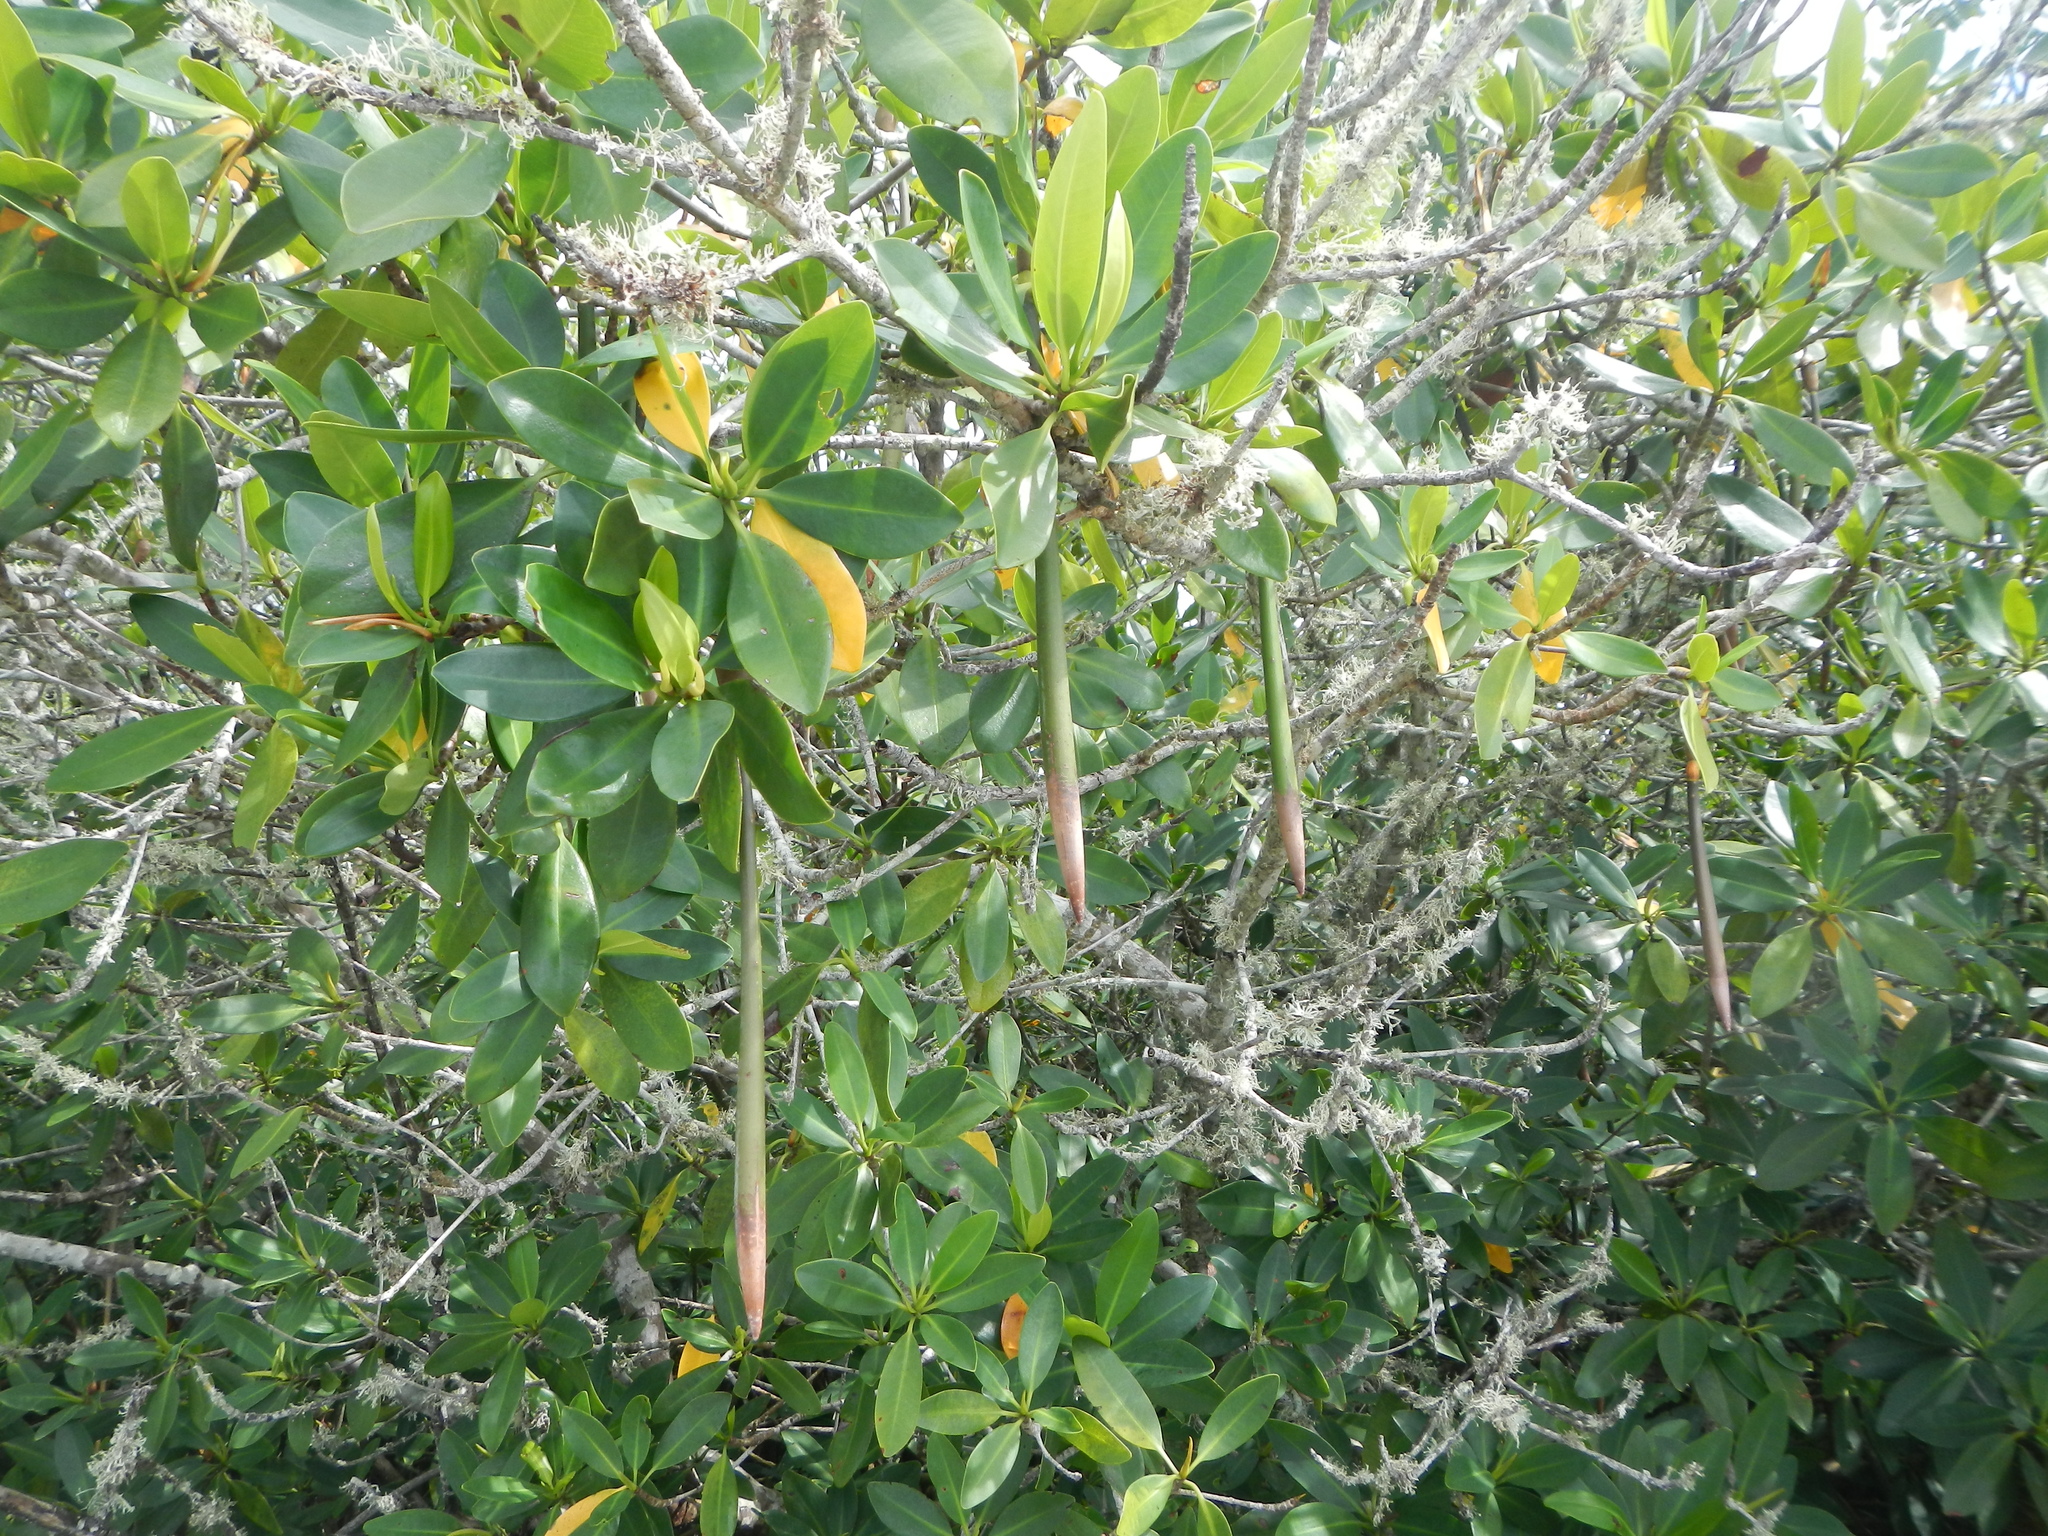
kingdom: Plantae
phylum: Tracheophyta
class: Magnoliopsida
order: Malpighiales
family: Rhizophoraceae
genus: Rhizophora
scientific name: Rhizophora mangle
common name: Red mangrove
